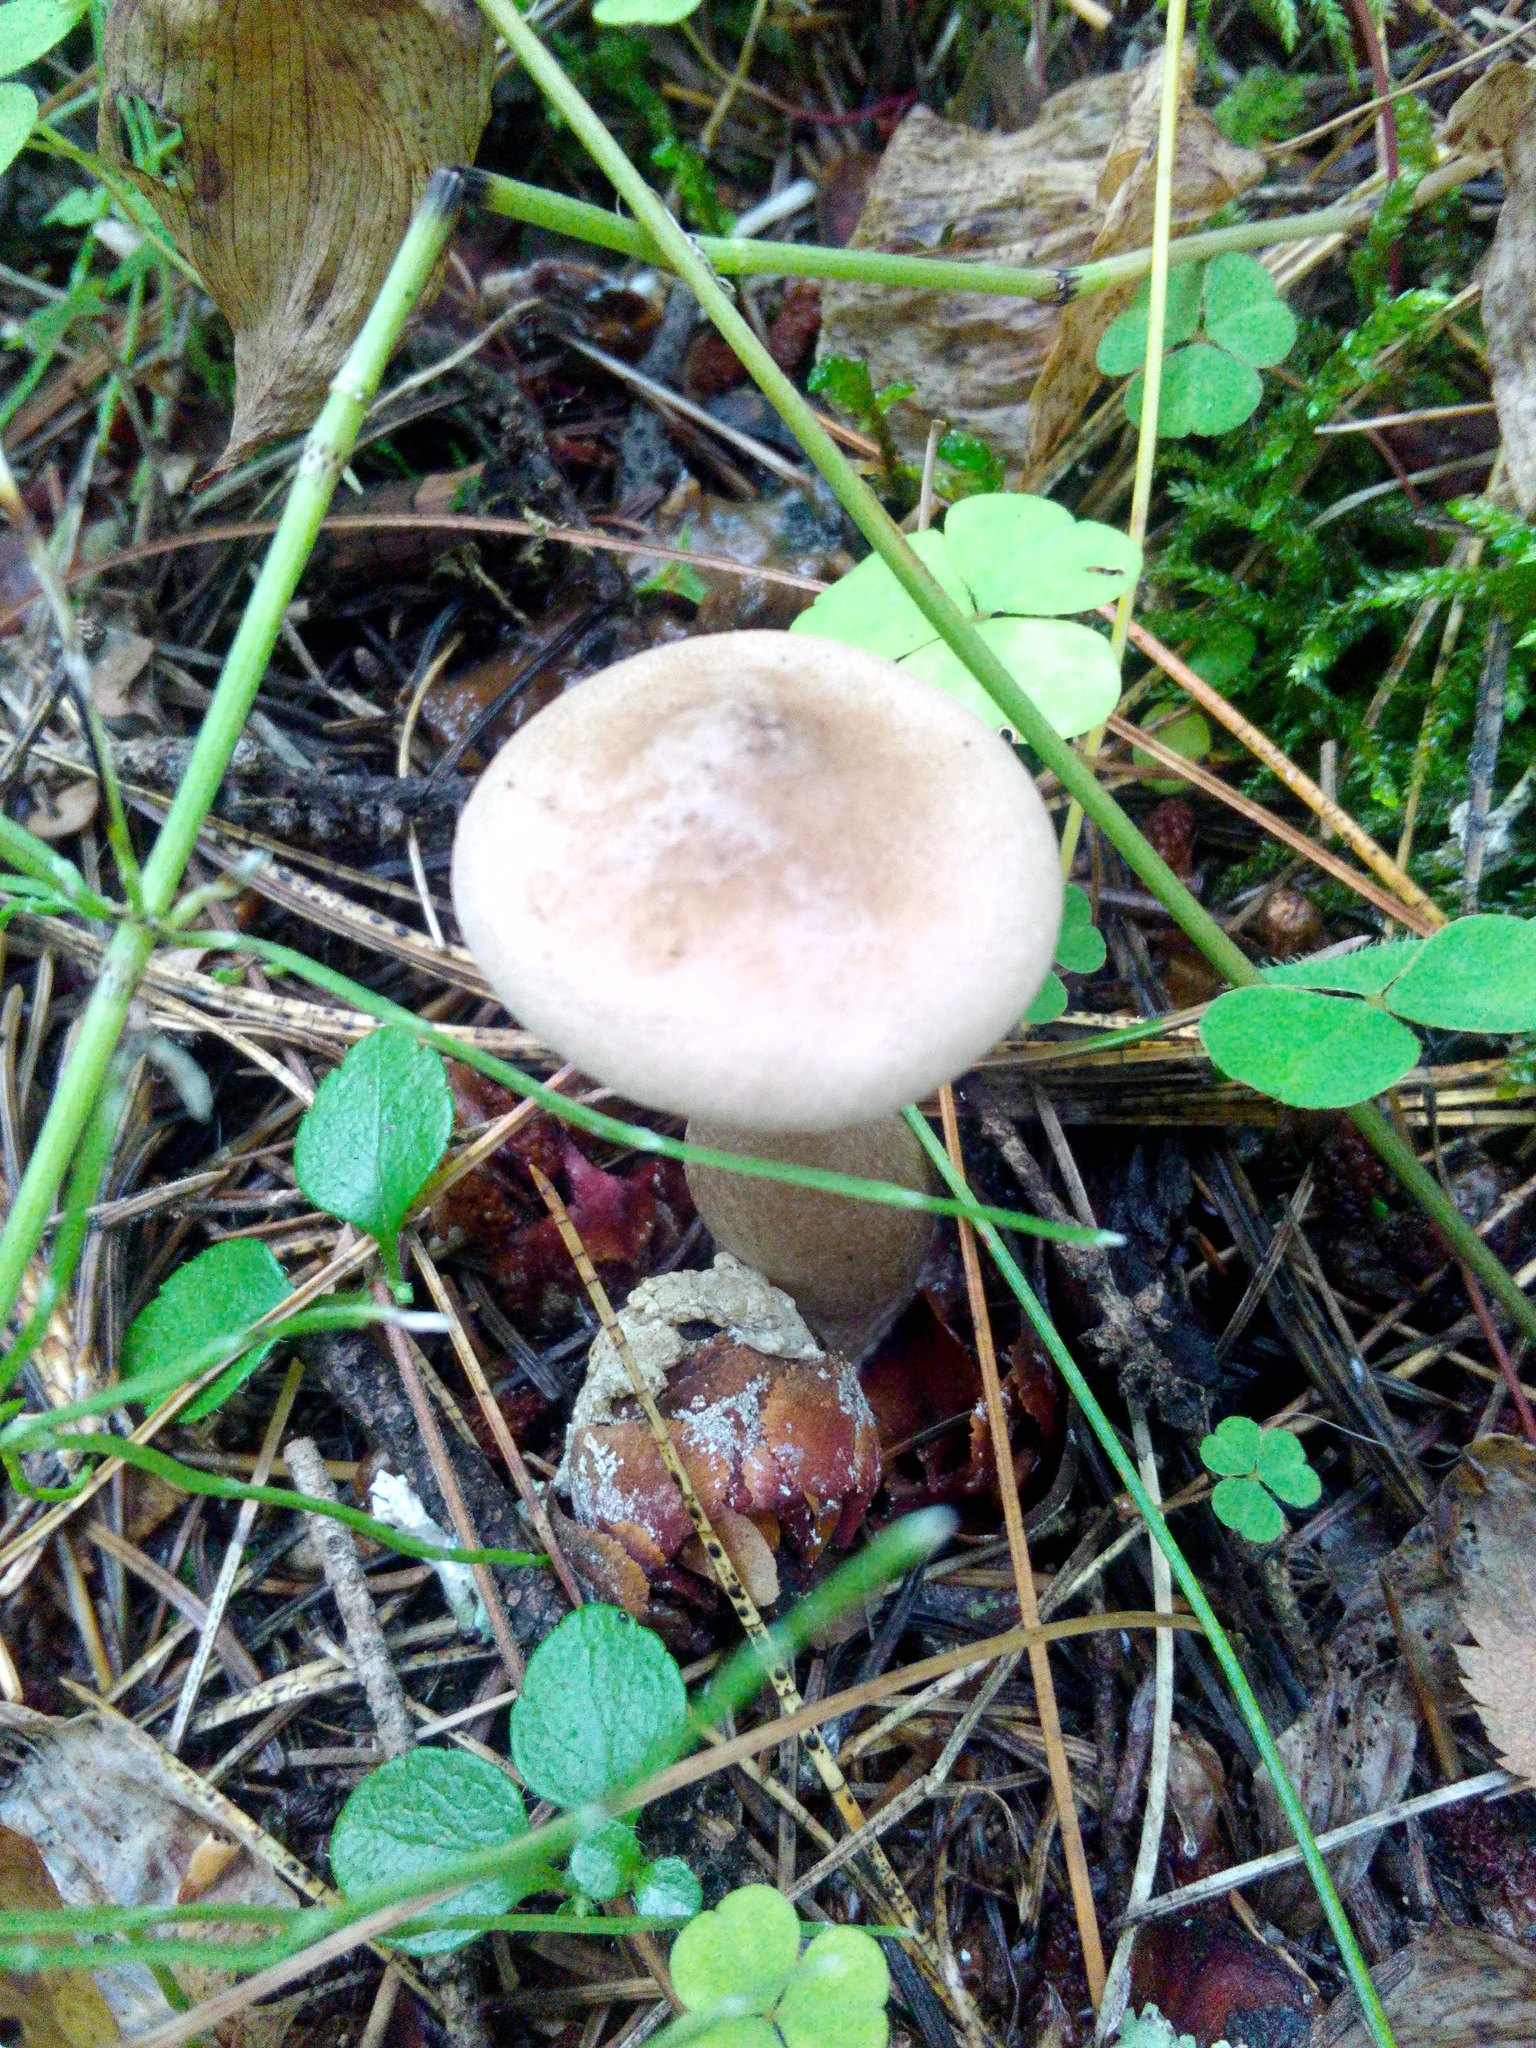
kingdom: Fungi
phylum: Basidiomycota
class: Agaricomycetes
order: Agaricales
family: Hygrophoraceae
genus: Ampulloclitocybe
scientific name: Ampulloclitocybe clavipes
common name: Club foot
